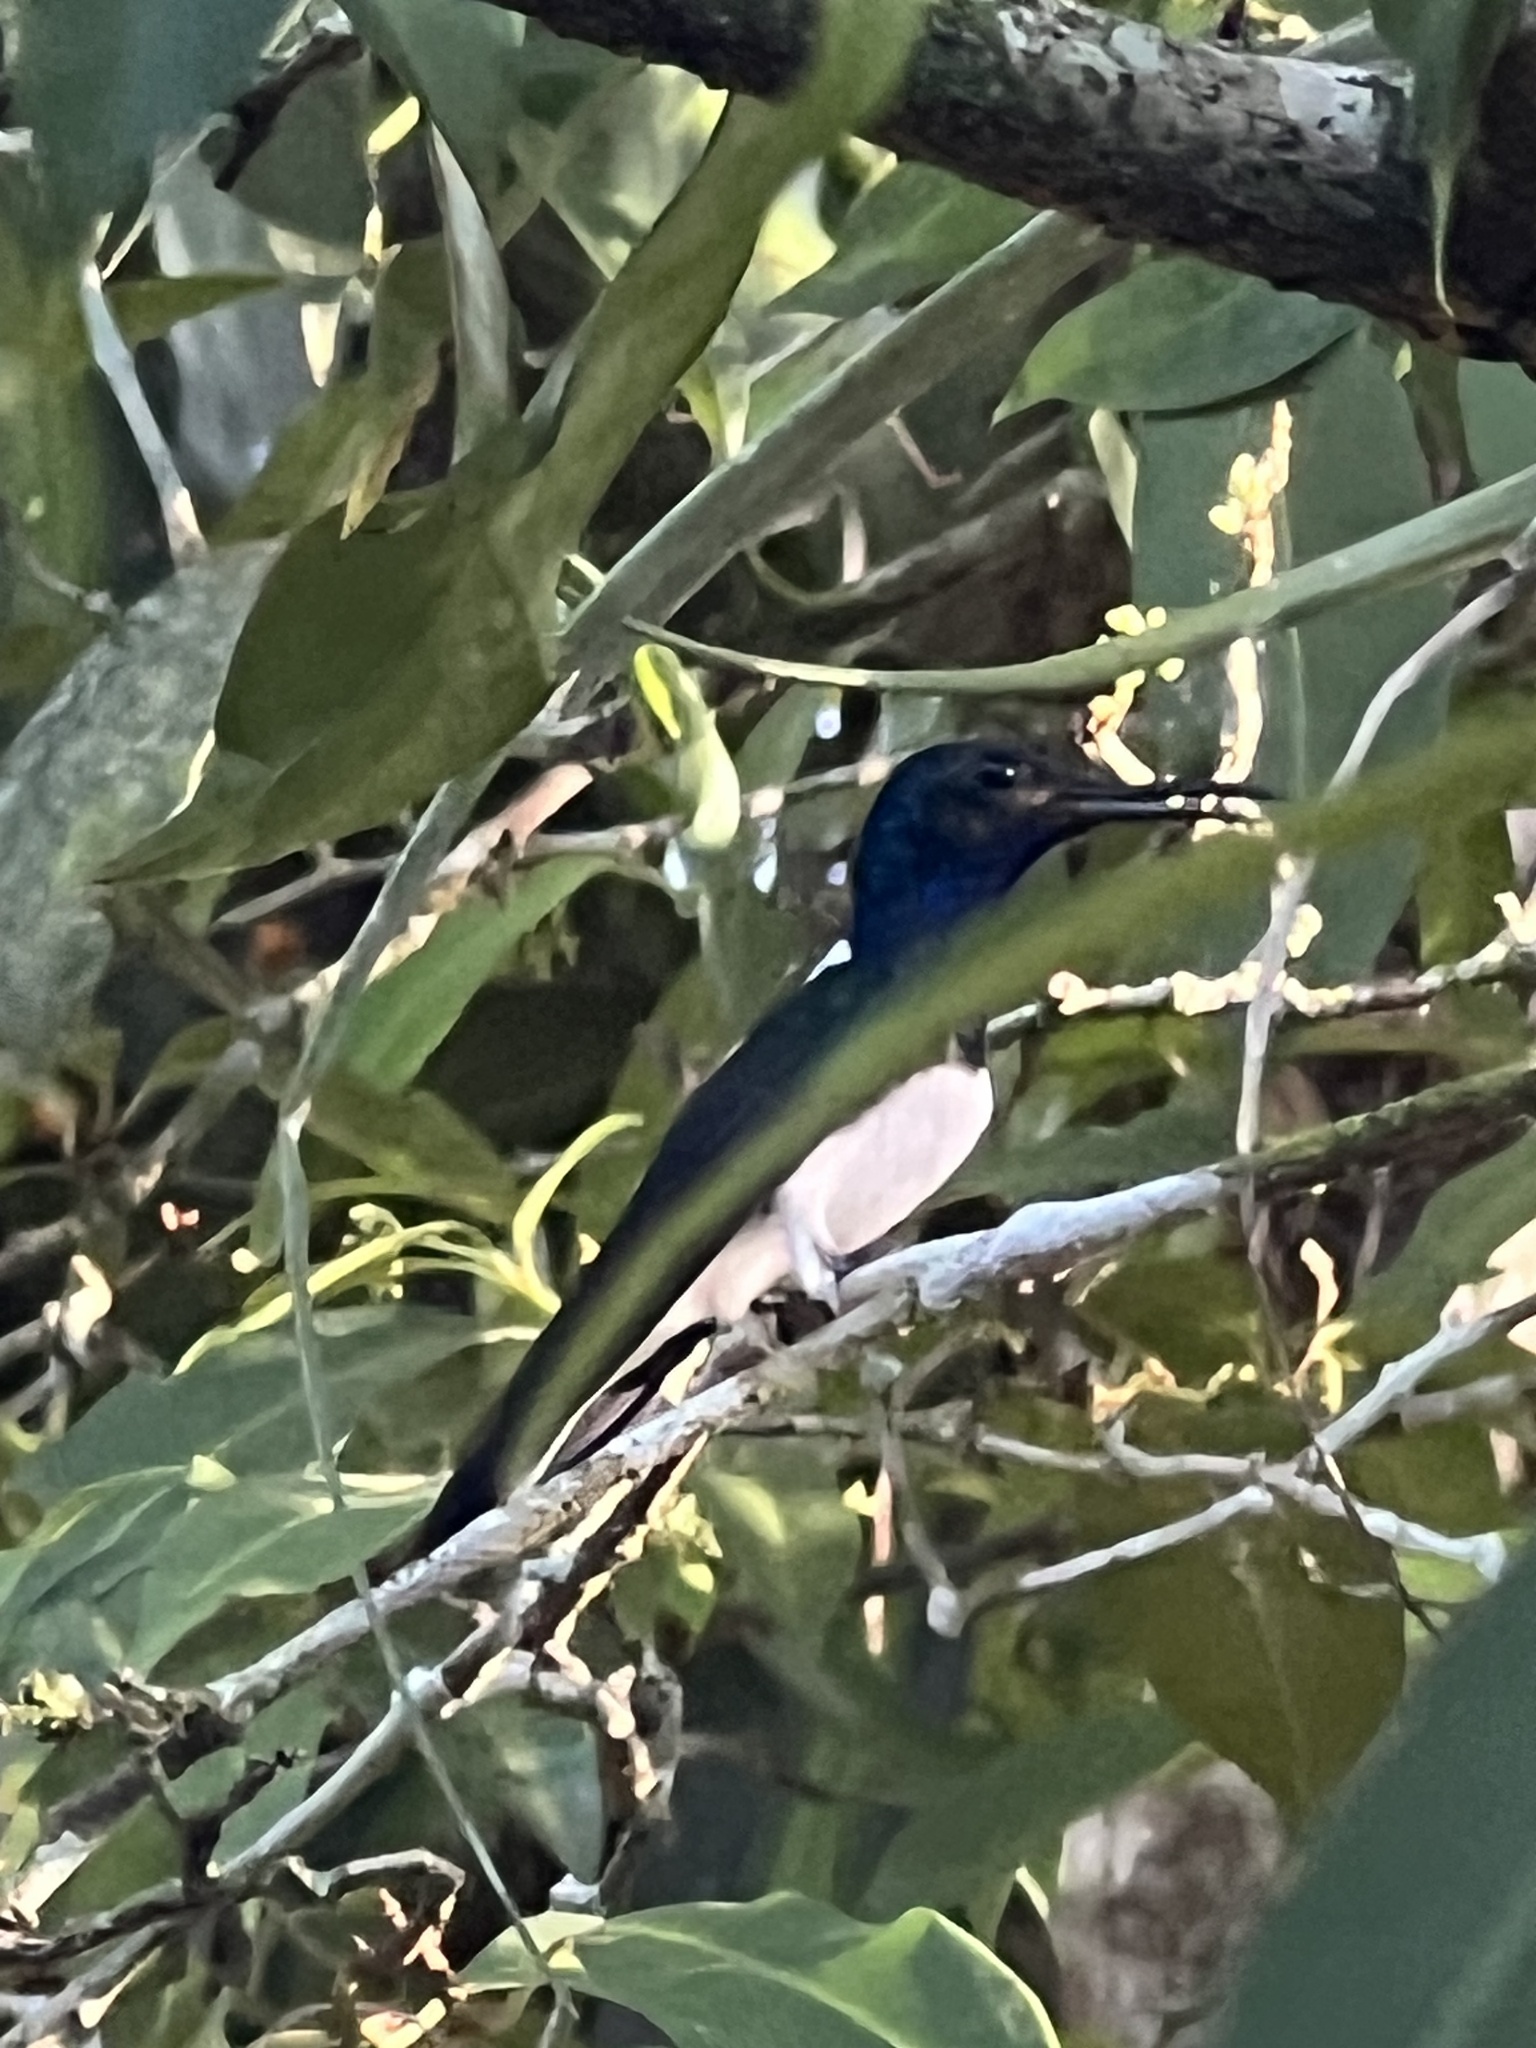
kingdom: Animalia
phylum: Chordata
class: Aves
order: Apodiformes
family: Trochilidae
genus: Florisuga
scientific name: Florisuga mellivora
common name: White-necked jacobin
